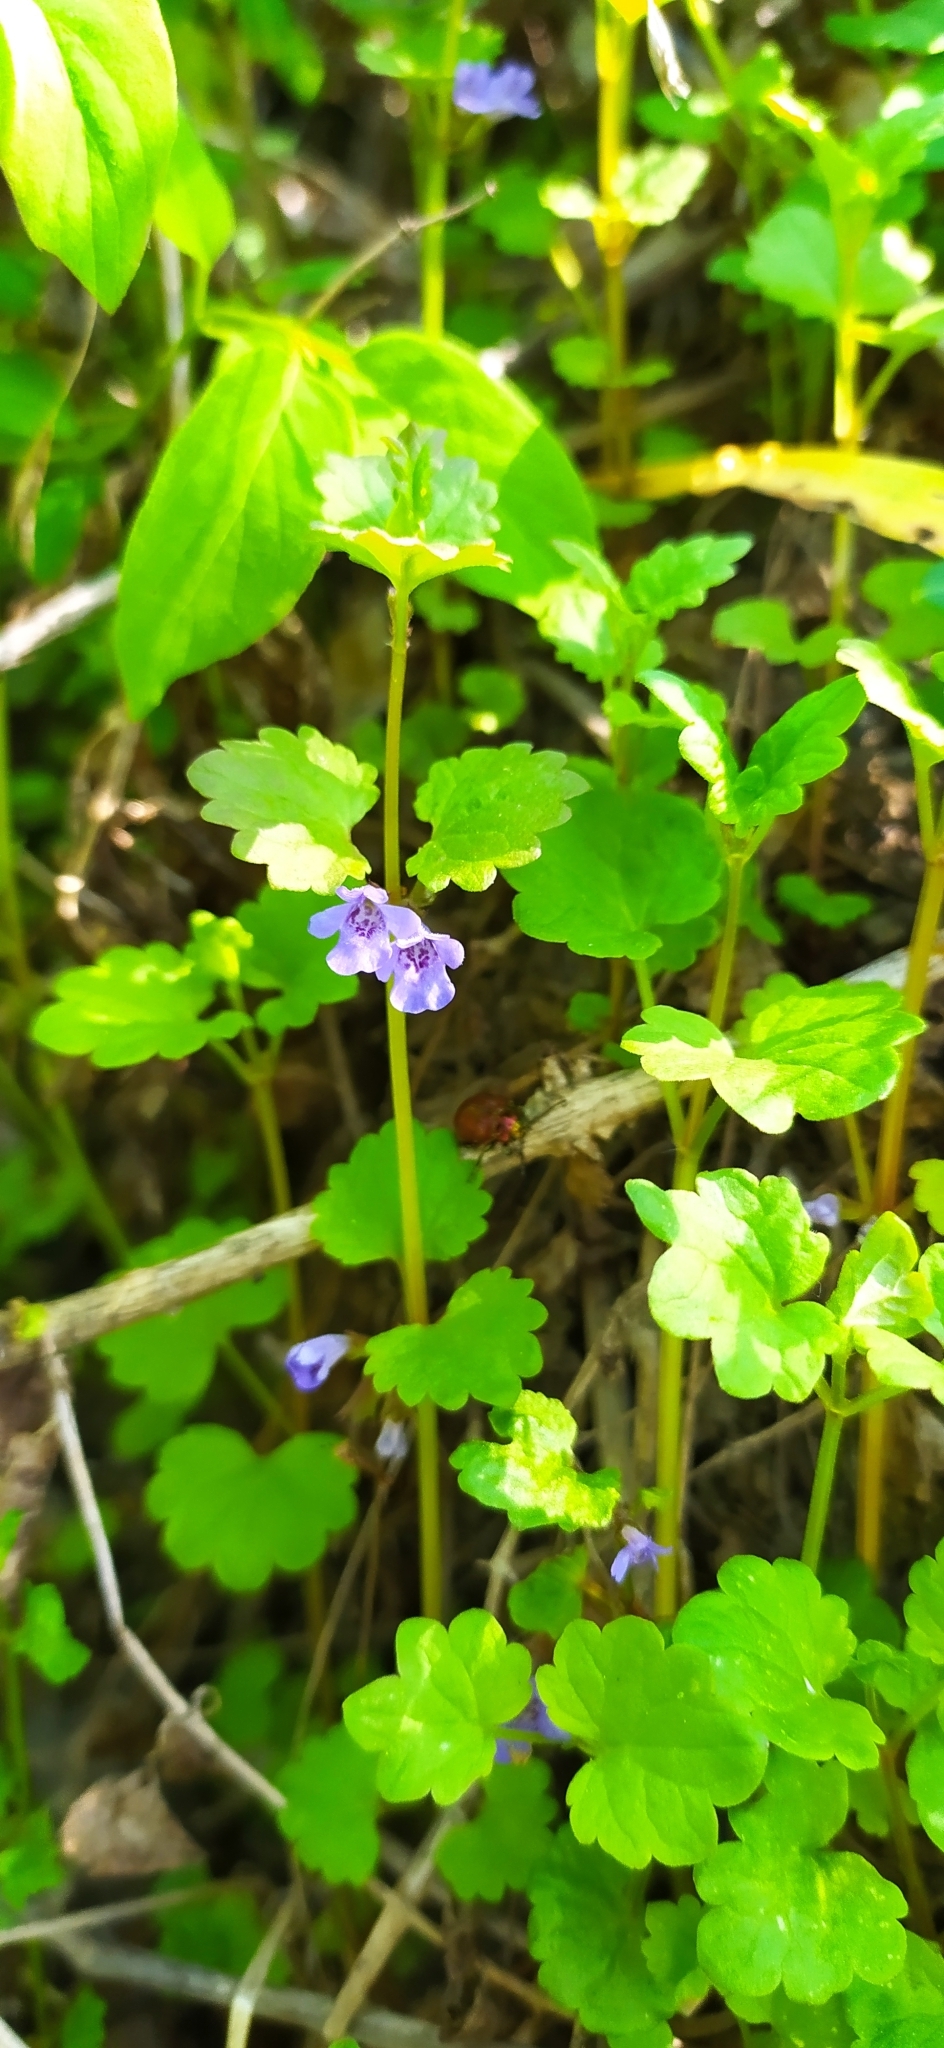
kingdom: Plantae
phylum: Tracheophyta
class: Magnoliopsida
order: Lamiales
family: Lamiaceae
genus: Glechoma
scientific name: Glechoma hederacea
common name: Ground ivy
